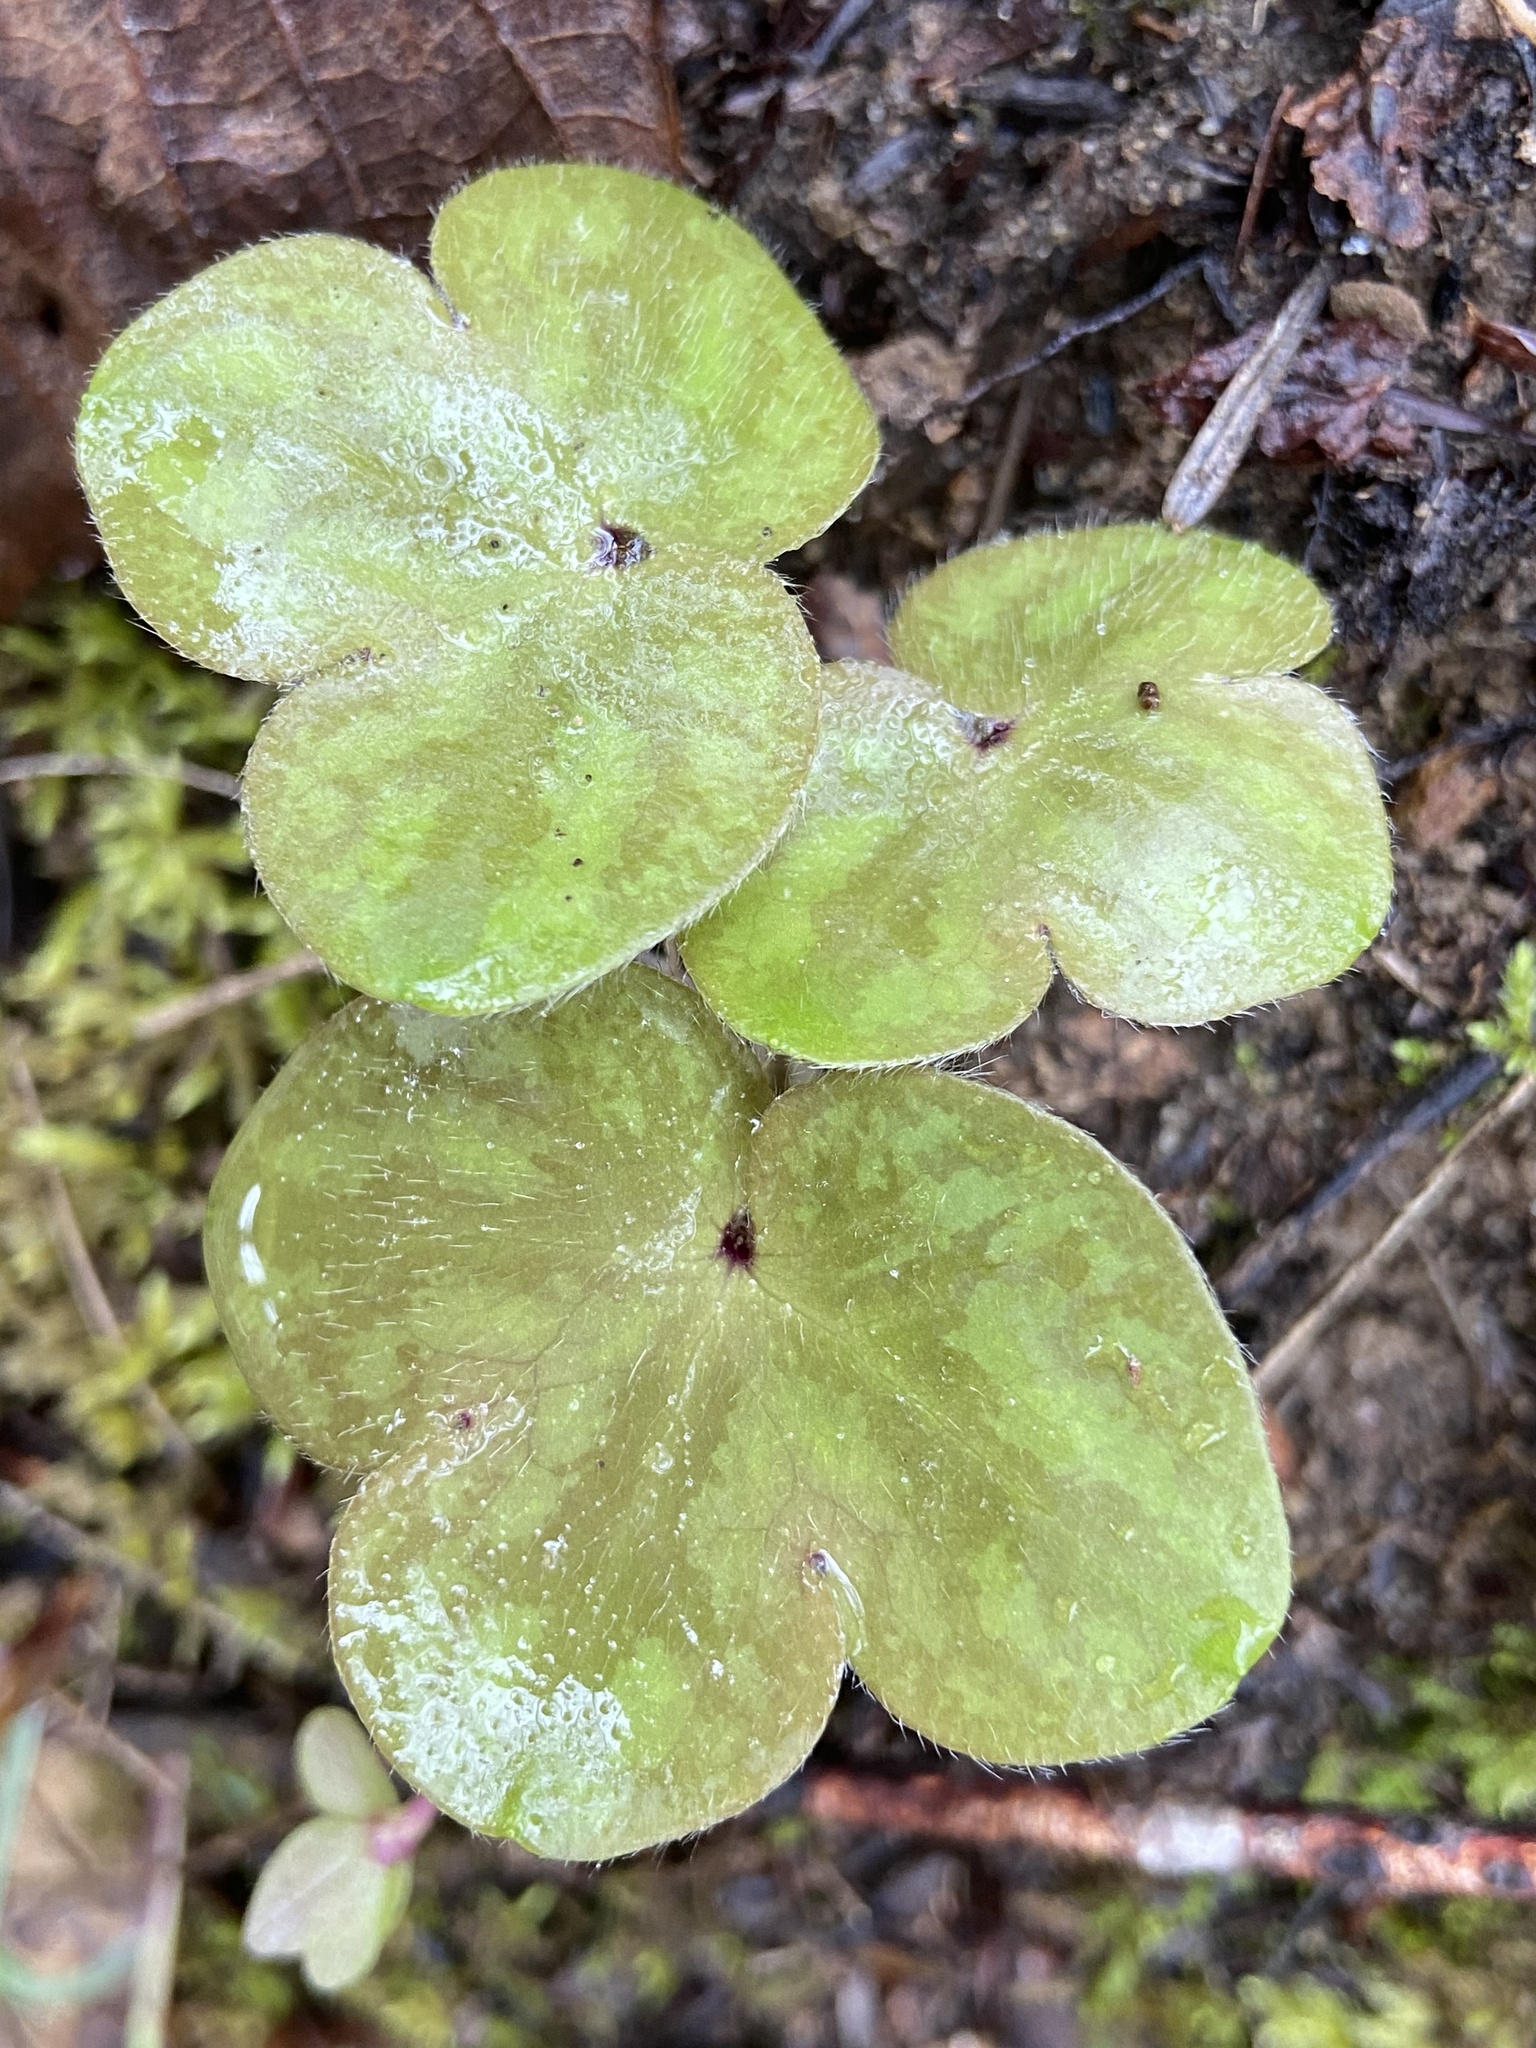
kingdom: Plantae
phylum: Tracheophyta
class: Magnoliopsida
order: Ranunculales
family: Ranunculaceae
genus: Hepatica
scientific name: Hepatica americana
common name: American hepatica
